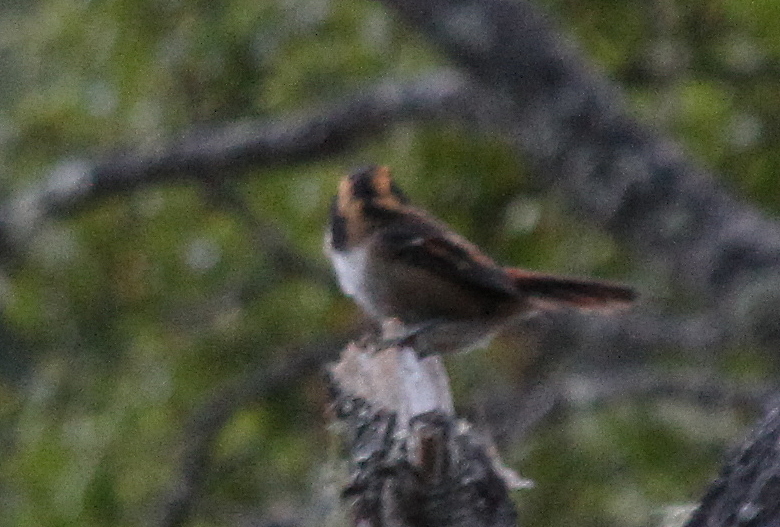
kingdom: Animalia
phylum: Chordata
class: Aves
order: Passeriformes
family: Furnariidae
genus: Aphrastura
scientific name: Aphrastura spinicauda
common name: Thorn-tailed rayadito
